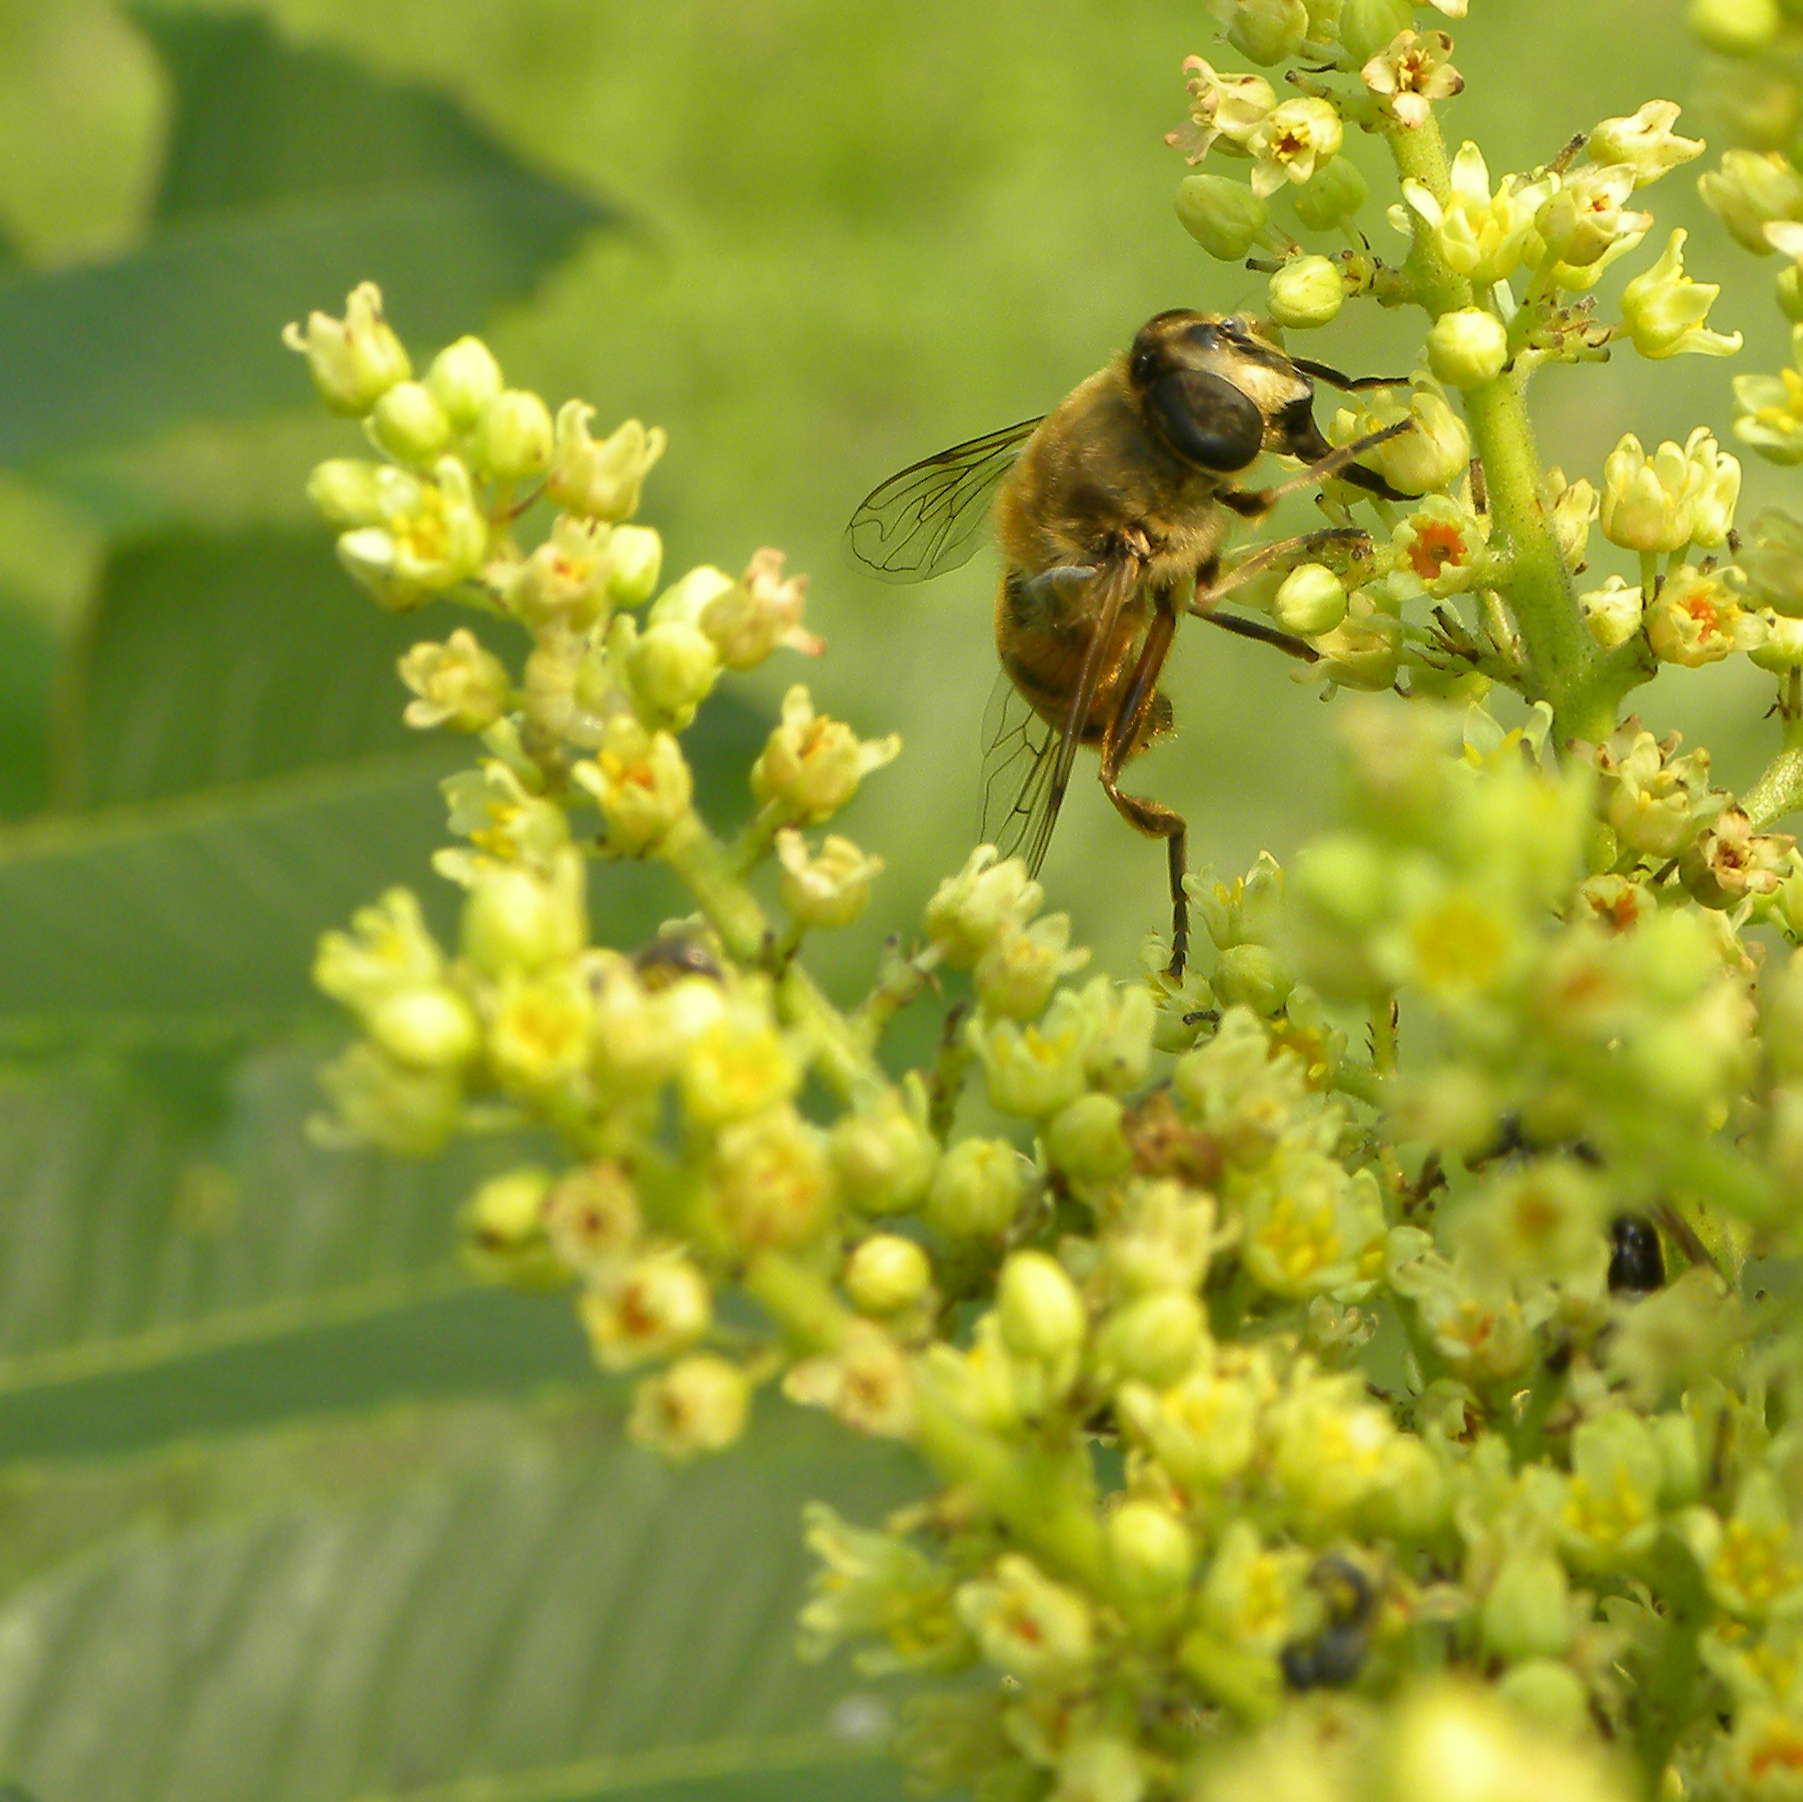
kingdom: Animalia
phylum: Arthropoda
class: Insecta
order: Diptera
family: Syrphidae
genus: Eristalis
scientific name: Eristalis tenax
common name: Drone fly
